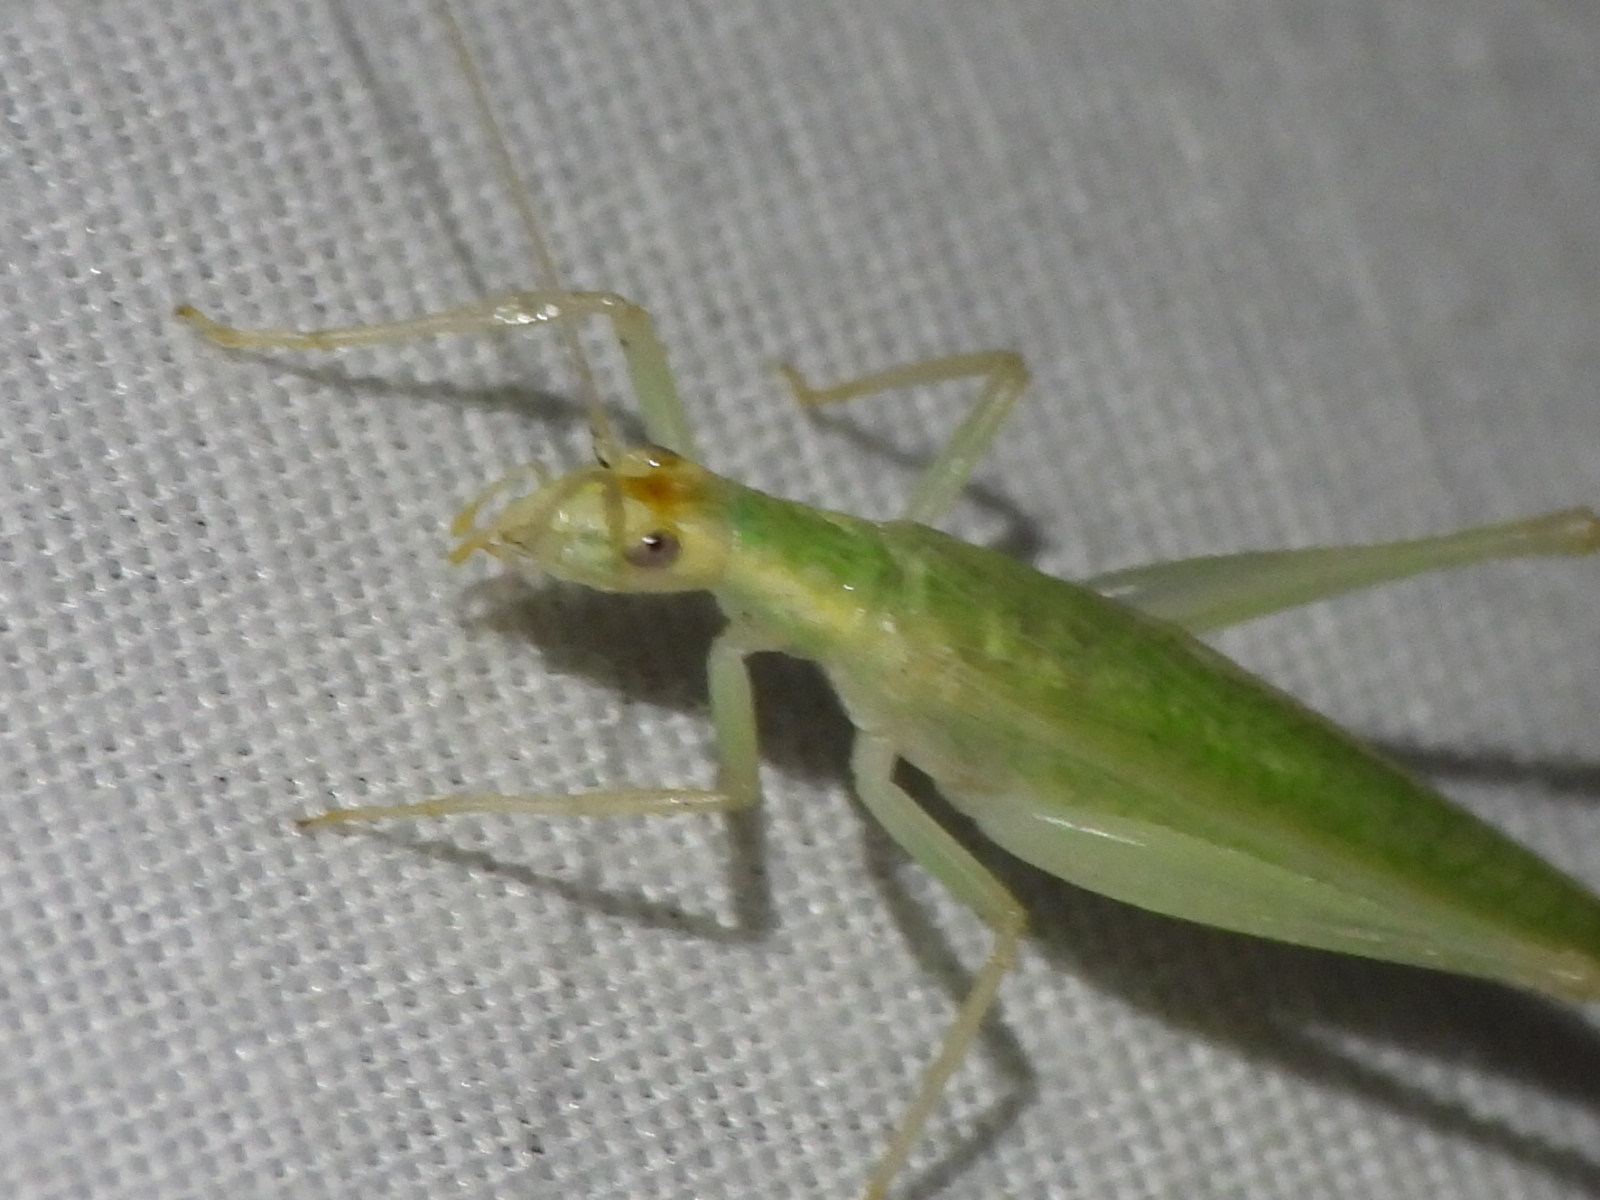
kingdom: Animalia
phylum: Arthropoda
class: Insecta
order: Orthoptera
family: Gryllidae
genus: Oecanthus
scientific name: Oecanthus niveus
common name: Narrow-winged tree cricket
